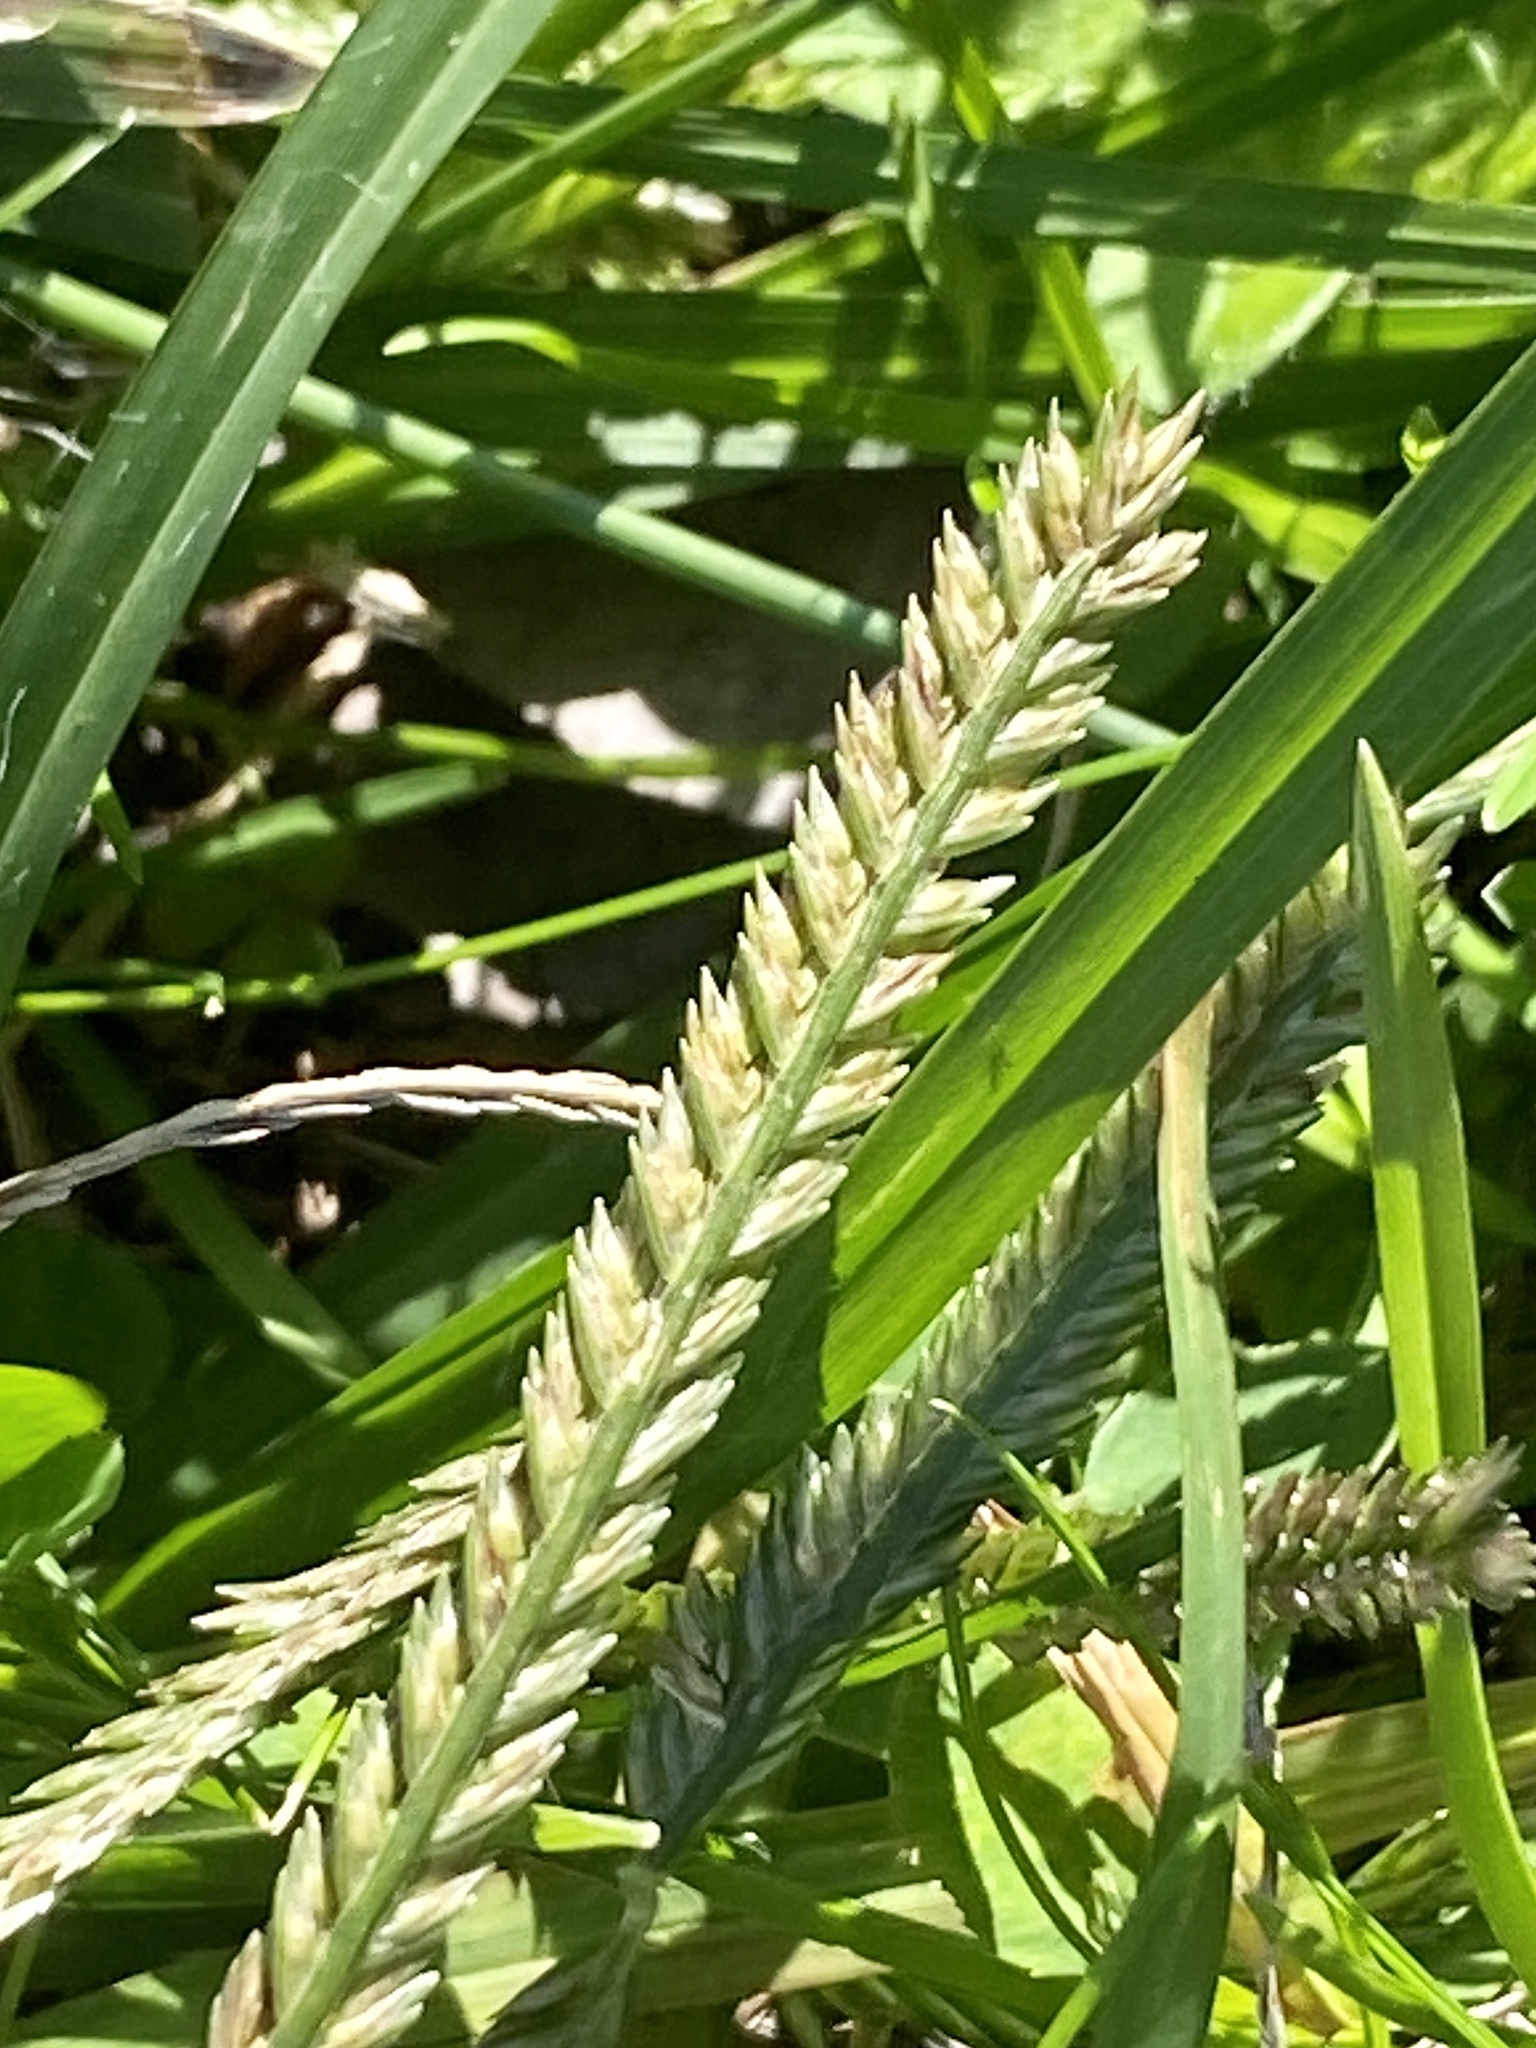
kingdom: Plantae
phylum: Tracheophyta
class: Liliopsida
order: Poales
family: Poaceae
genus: Eleusine
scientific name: Eleusine indica
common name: Yard-grass
